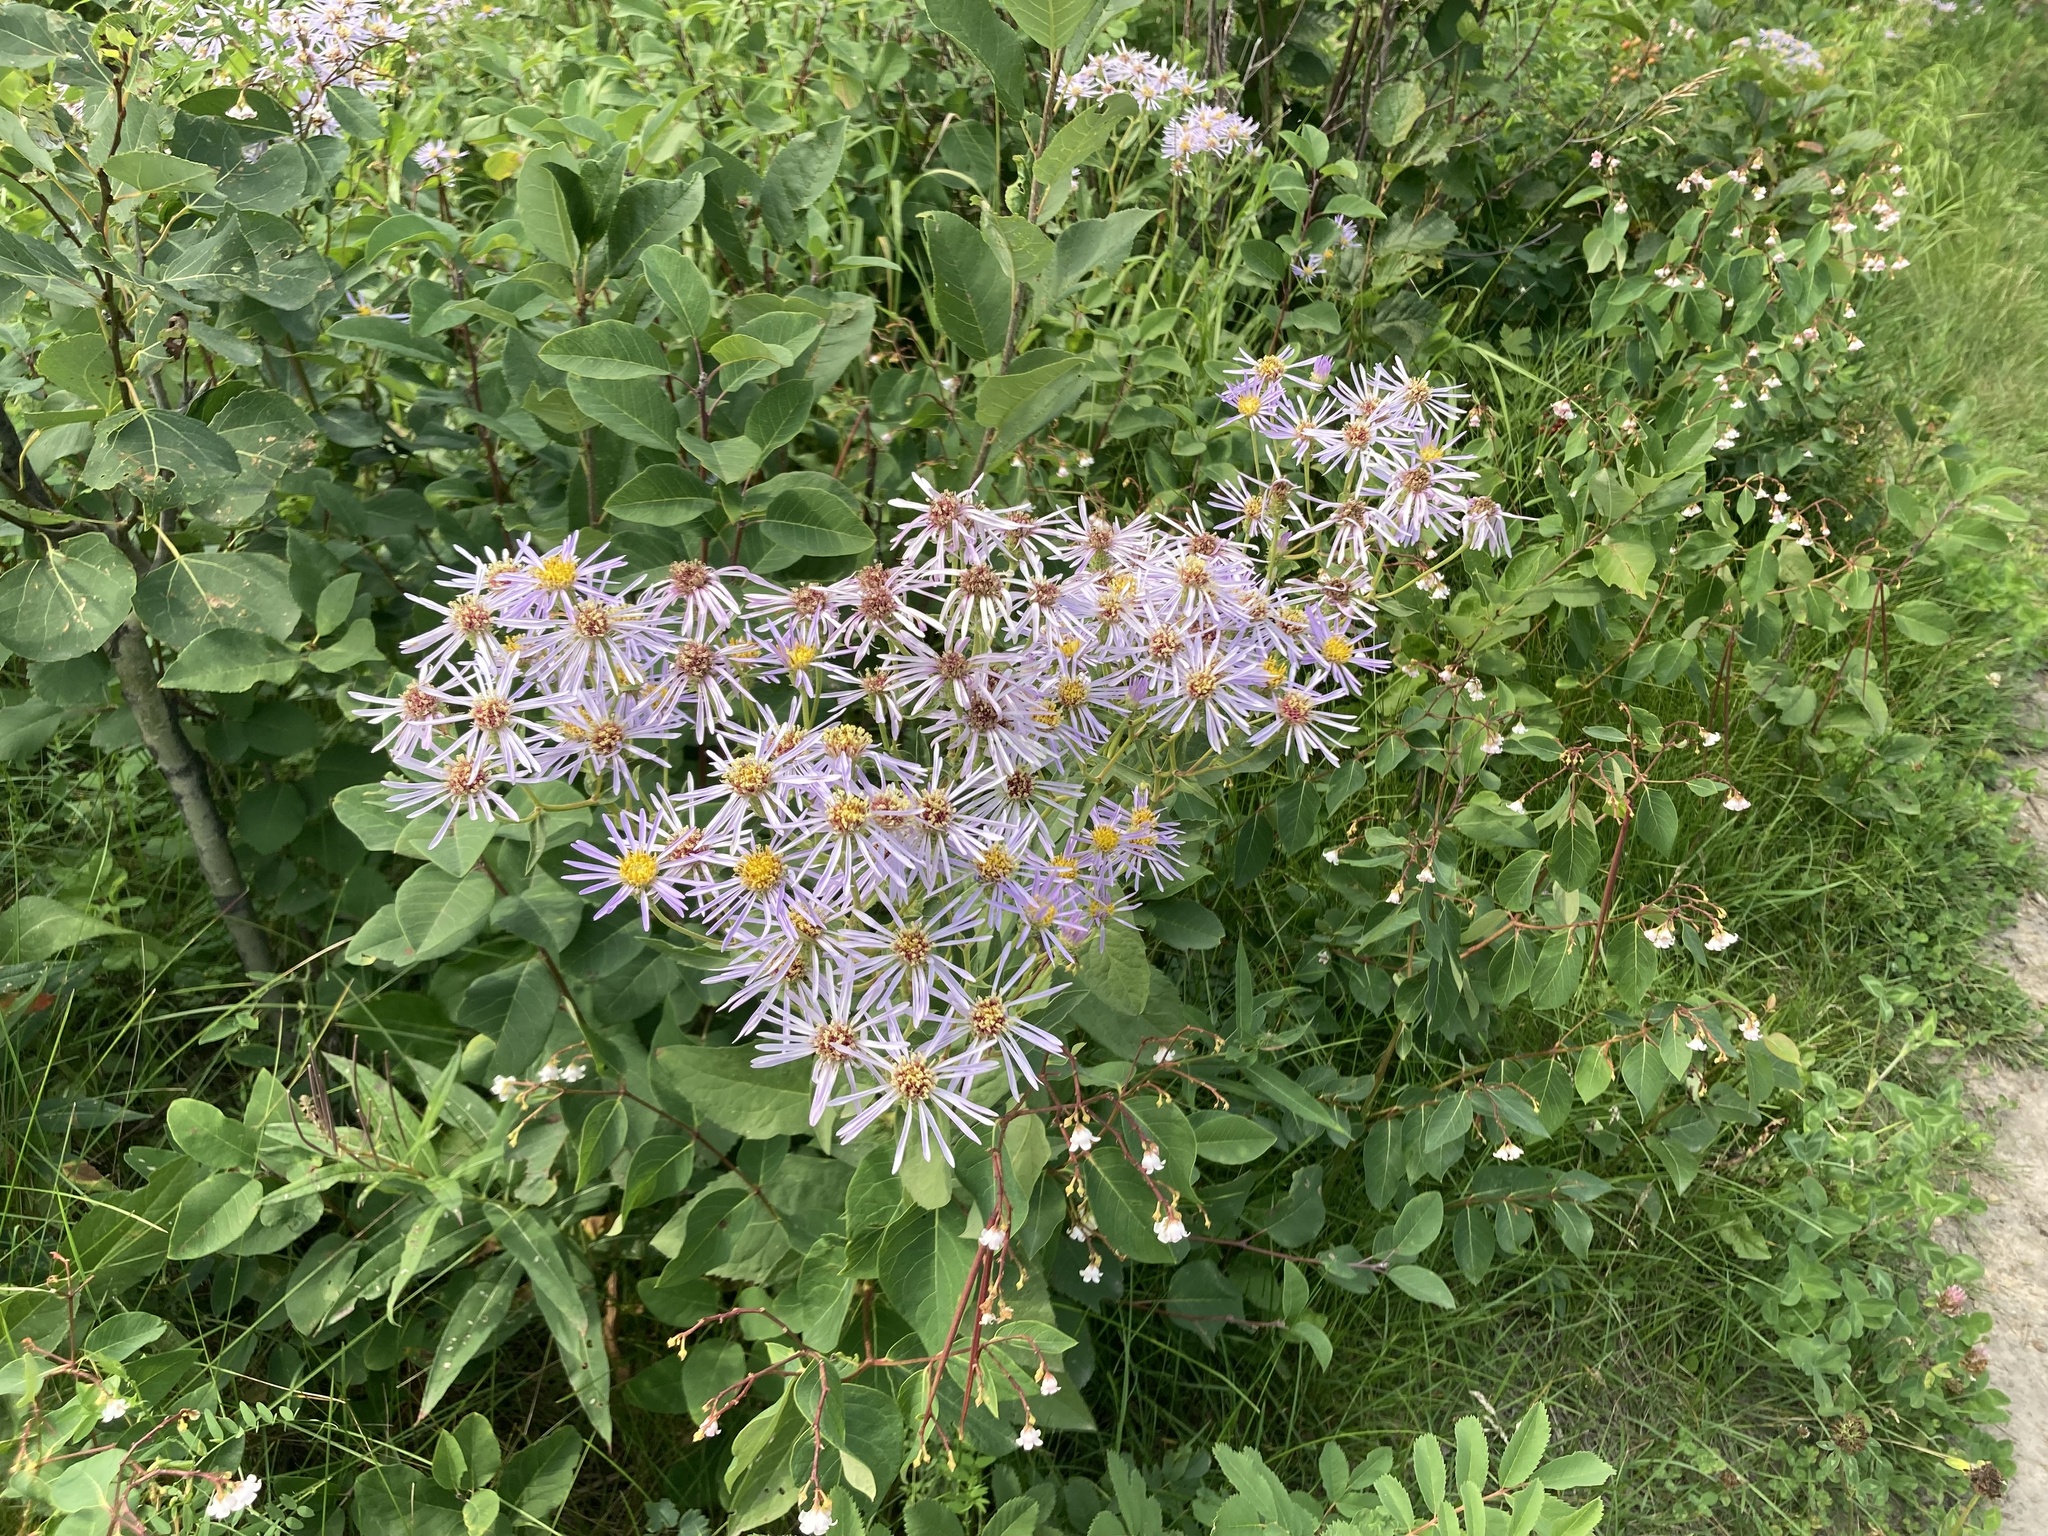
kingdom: Plantae
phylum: Tracheophyta
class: Magnoliopsida
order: Asterales
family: Asteraceae
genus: Eurybia
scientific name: Eurybia conspicua
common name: Showy aster
